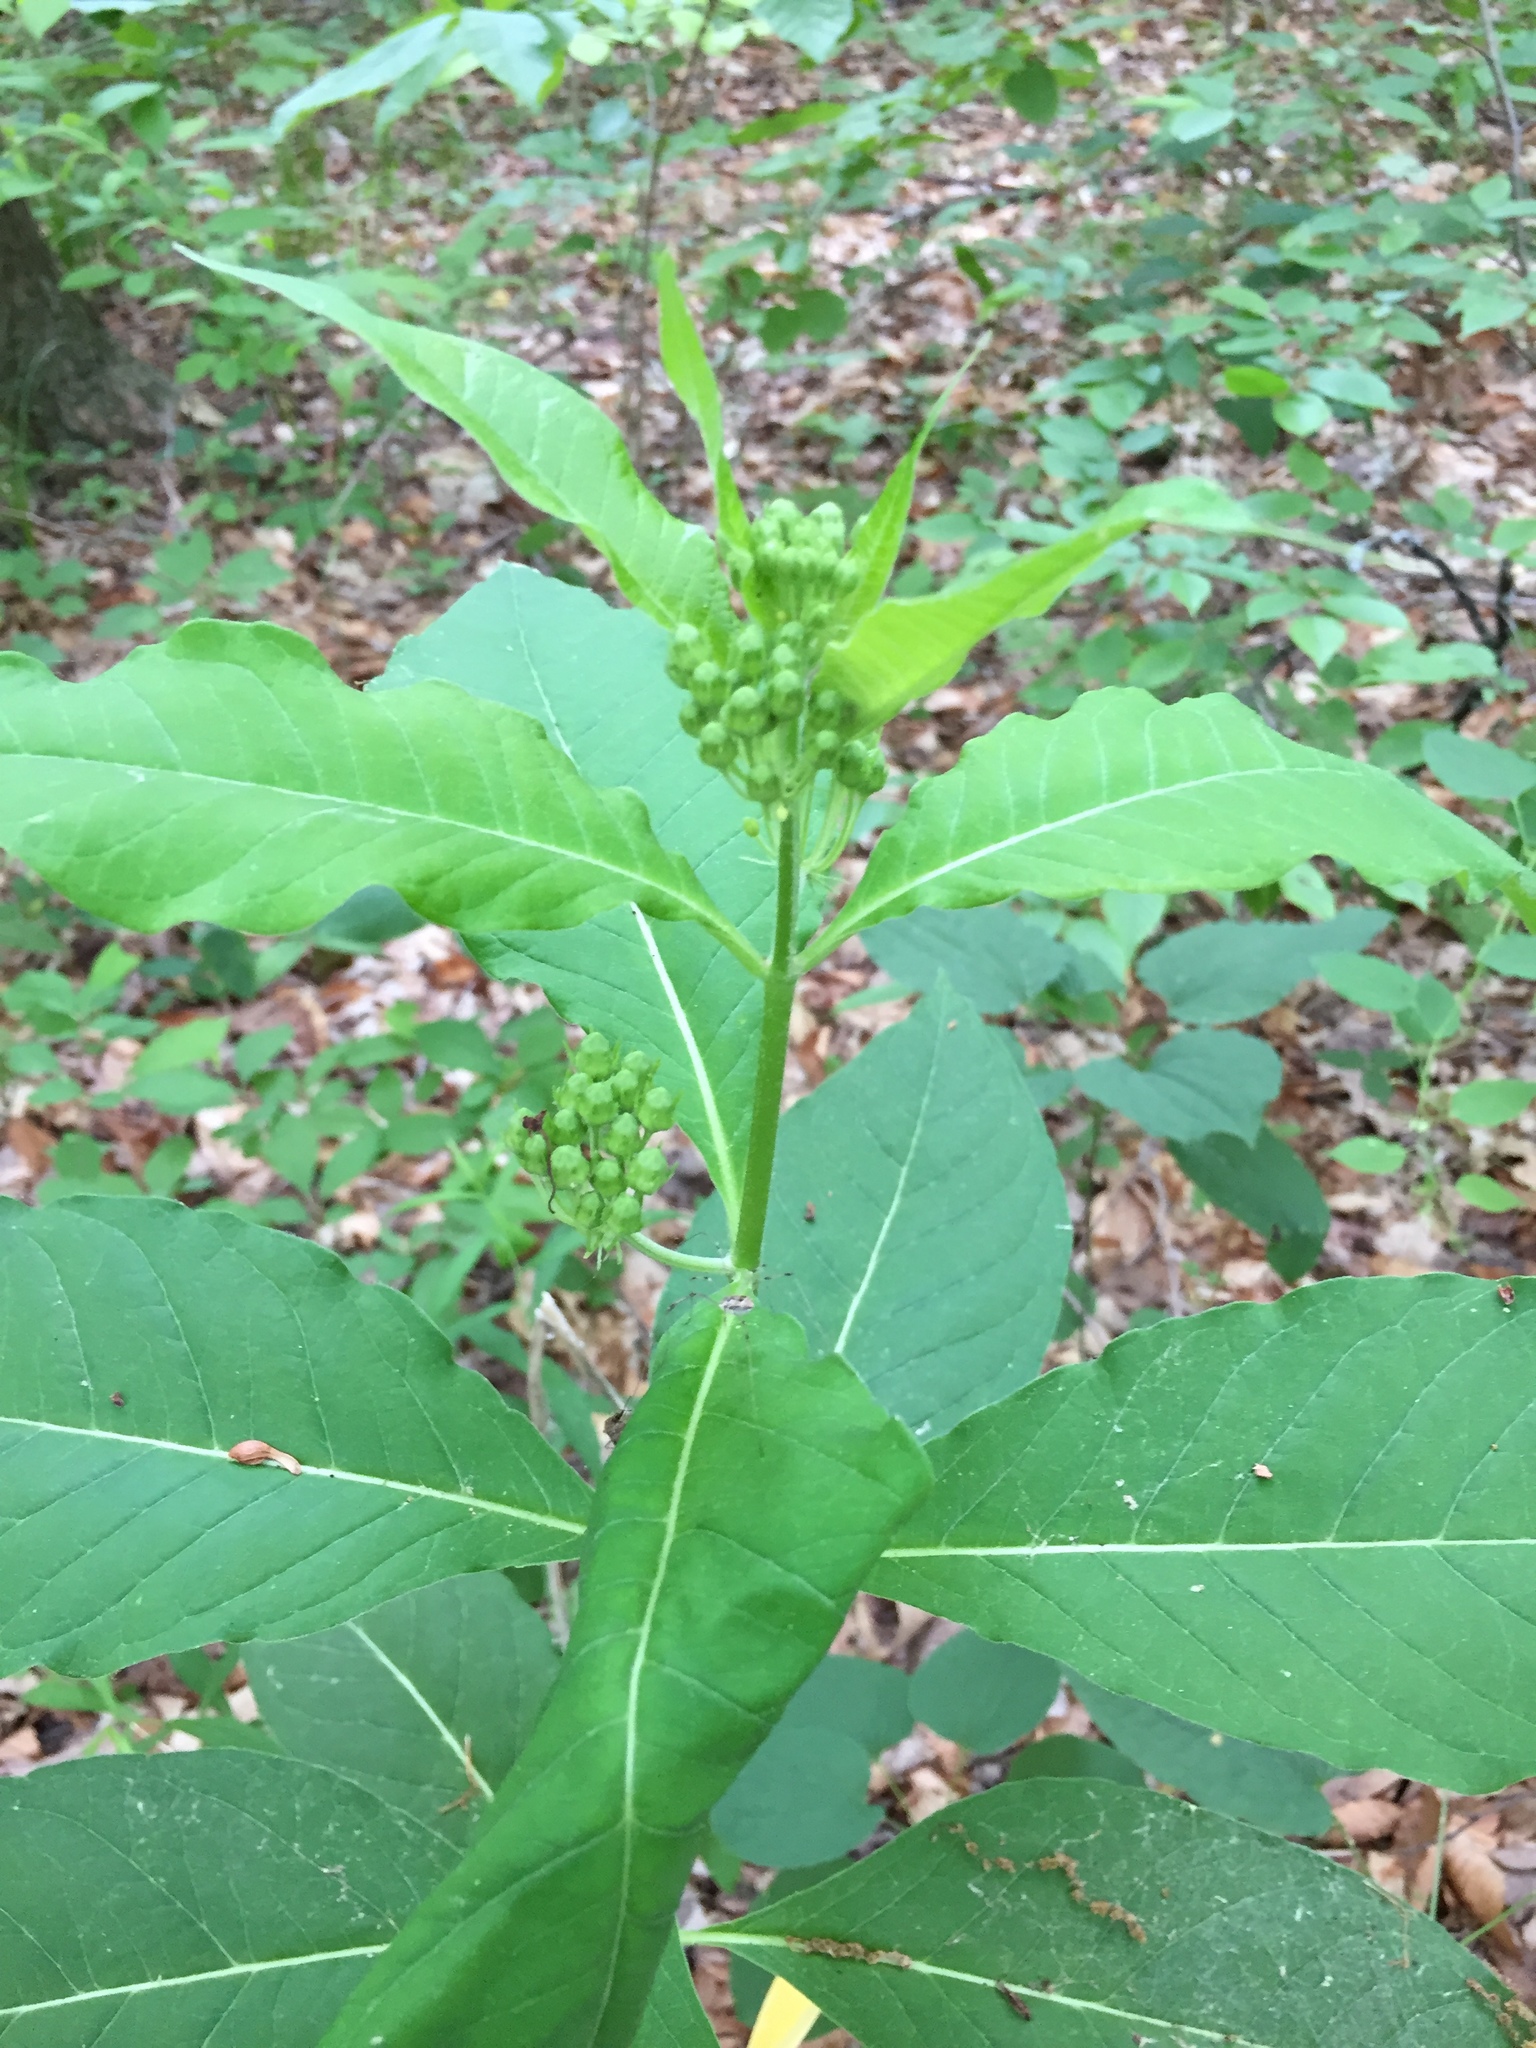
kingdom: Plantae
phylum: Tracheophyta
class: Magnoliopsida
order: Gentianales
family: Apocynaceae
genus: Asclepias
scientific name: Asclepias exaltata
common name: Poke milkweed
